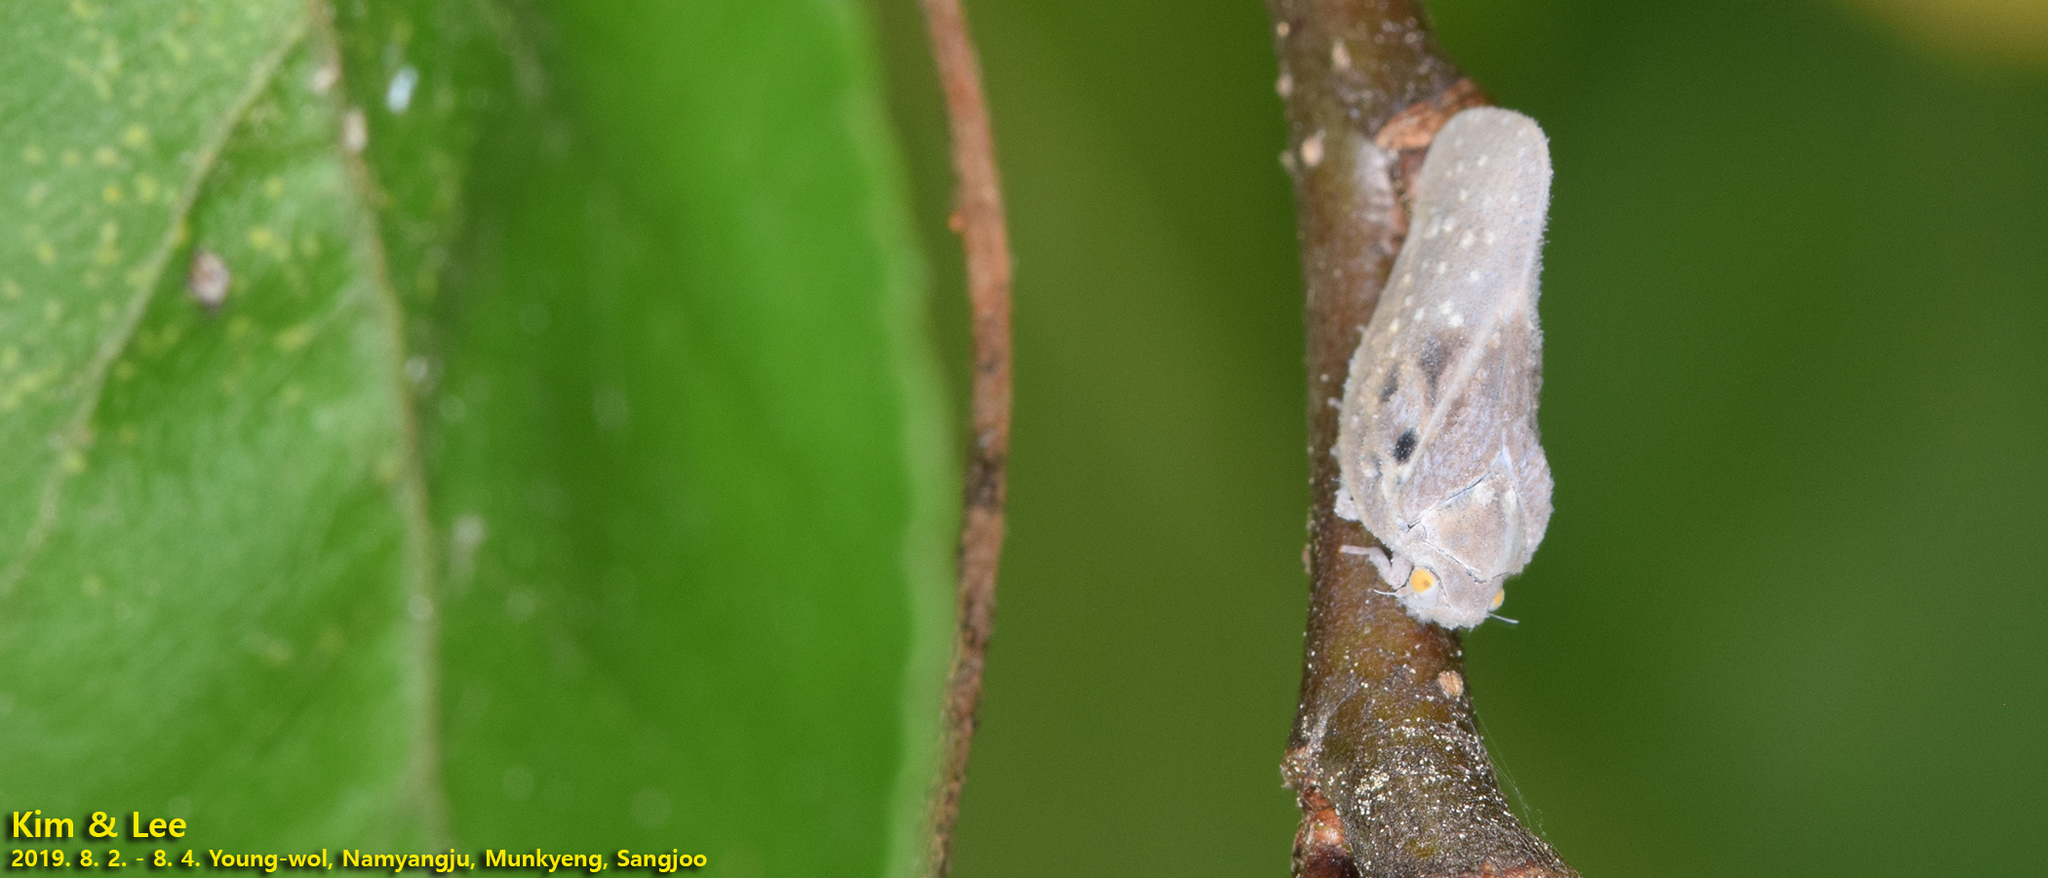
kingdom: Animalia
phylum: Arthropoda
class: Insecta
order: Hemiptera
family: Flatidae
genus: Metcalfa
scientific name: Metcalfa pruinosa
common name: Citrus flatid planthopper
